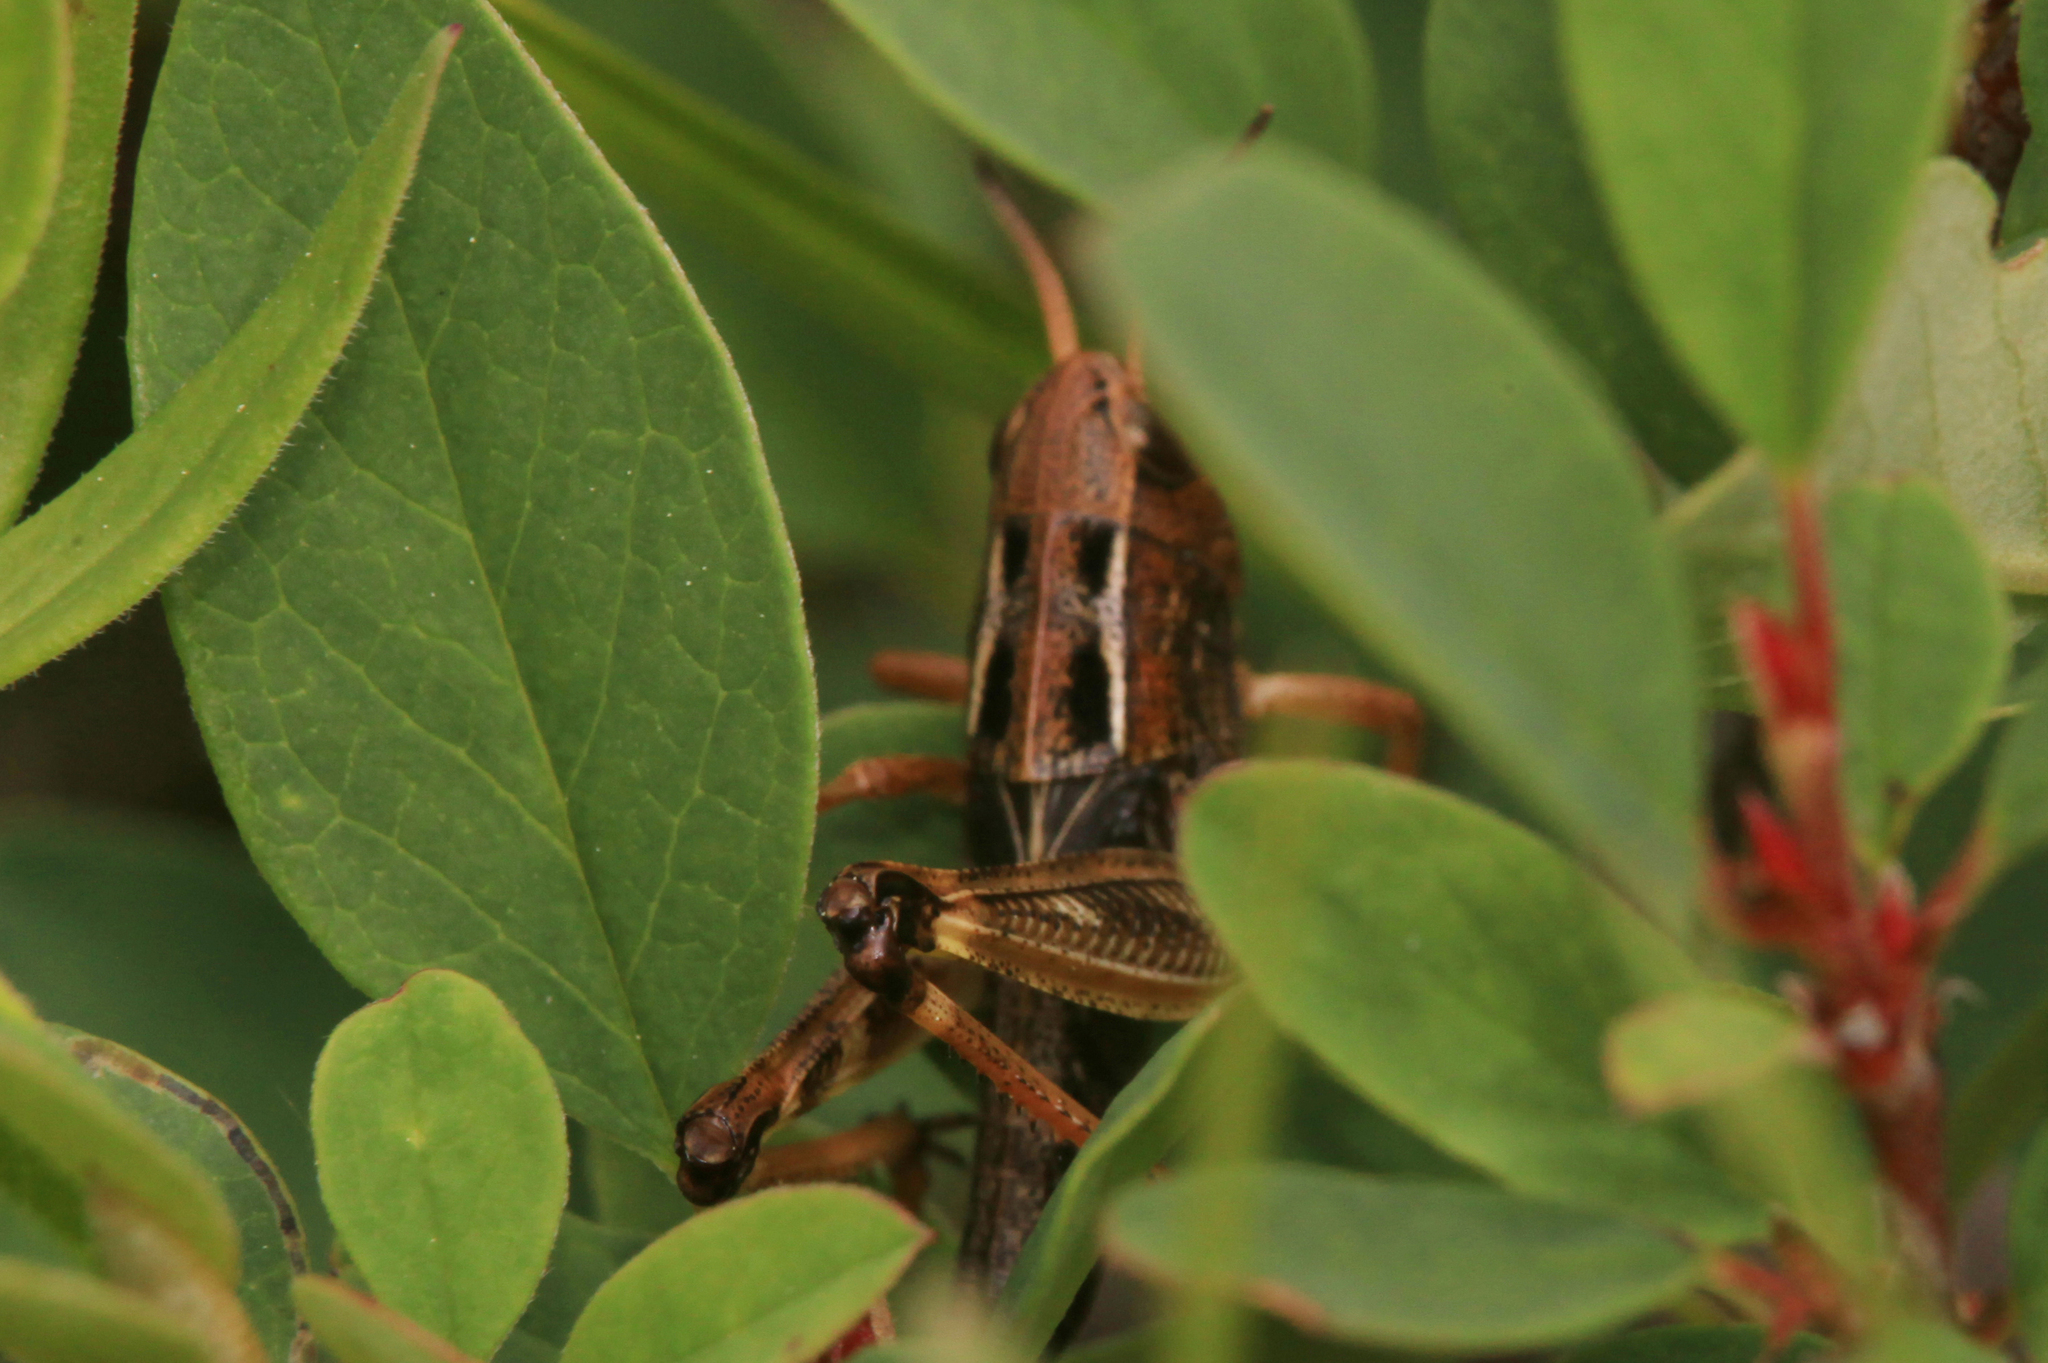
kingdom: Animalia
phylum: Arthropoda
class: Insecta
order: Orthoptera
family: Acrididae
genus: Arcyptera
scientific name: Arcyptera fusca
